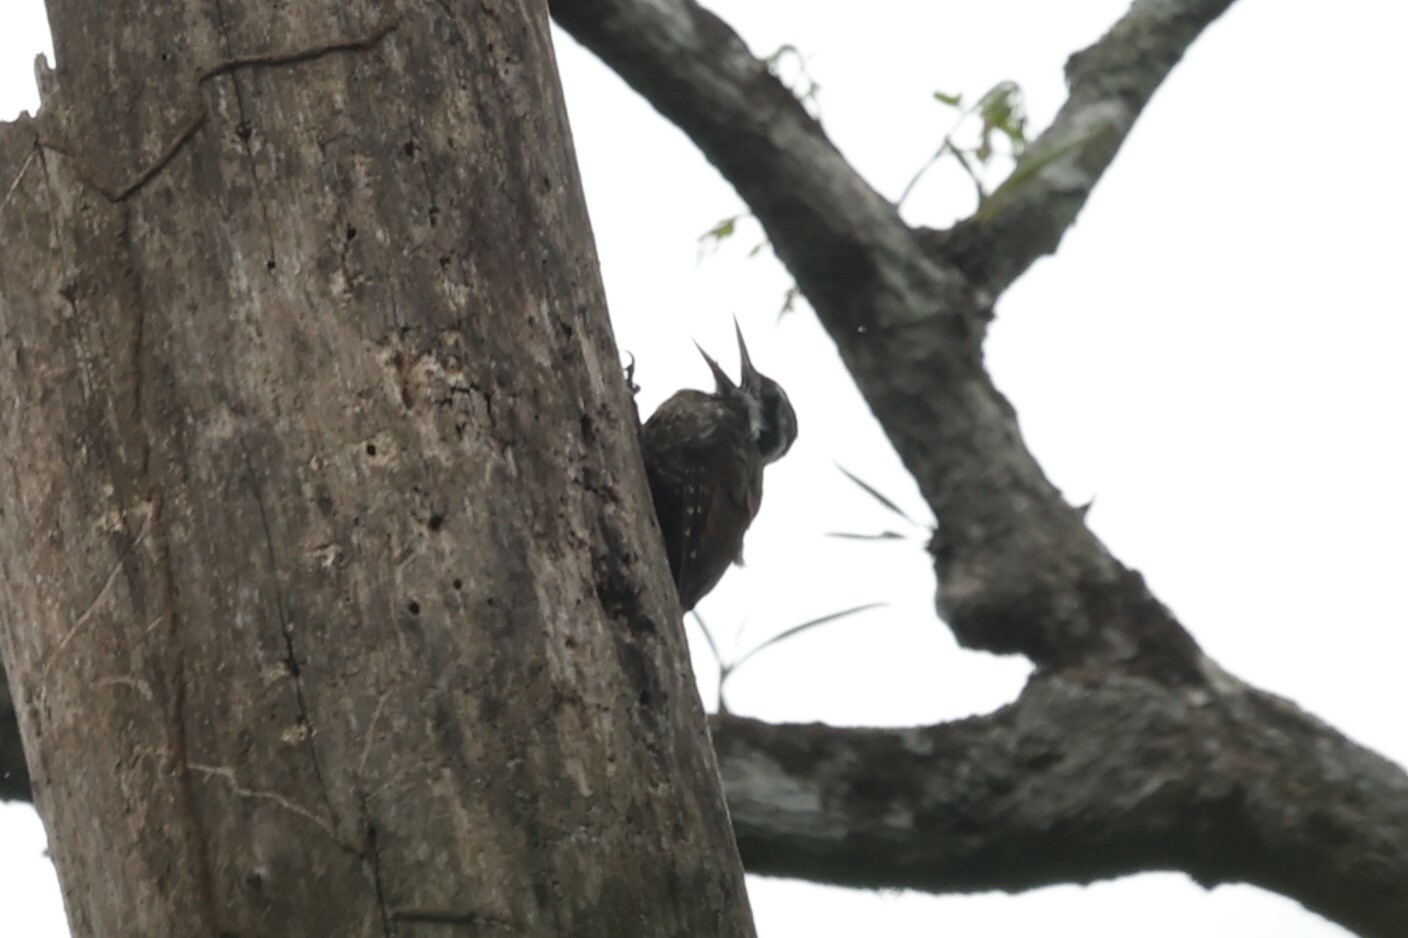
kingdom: Animalia
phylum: Chordata
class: Aves
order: Piciformes
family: Picidae
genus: Chloropicus
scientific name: Chloropicus xantholophus
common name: Yellow-crested woodpecker
